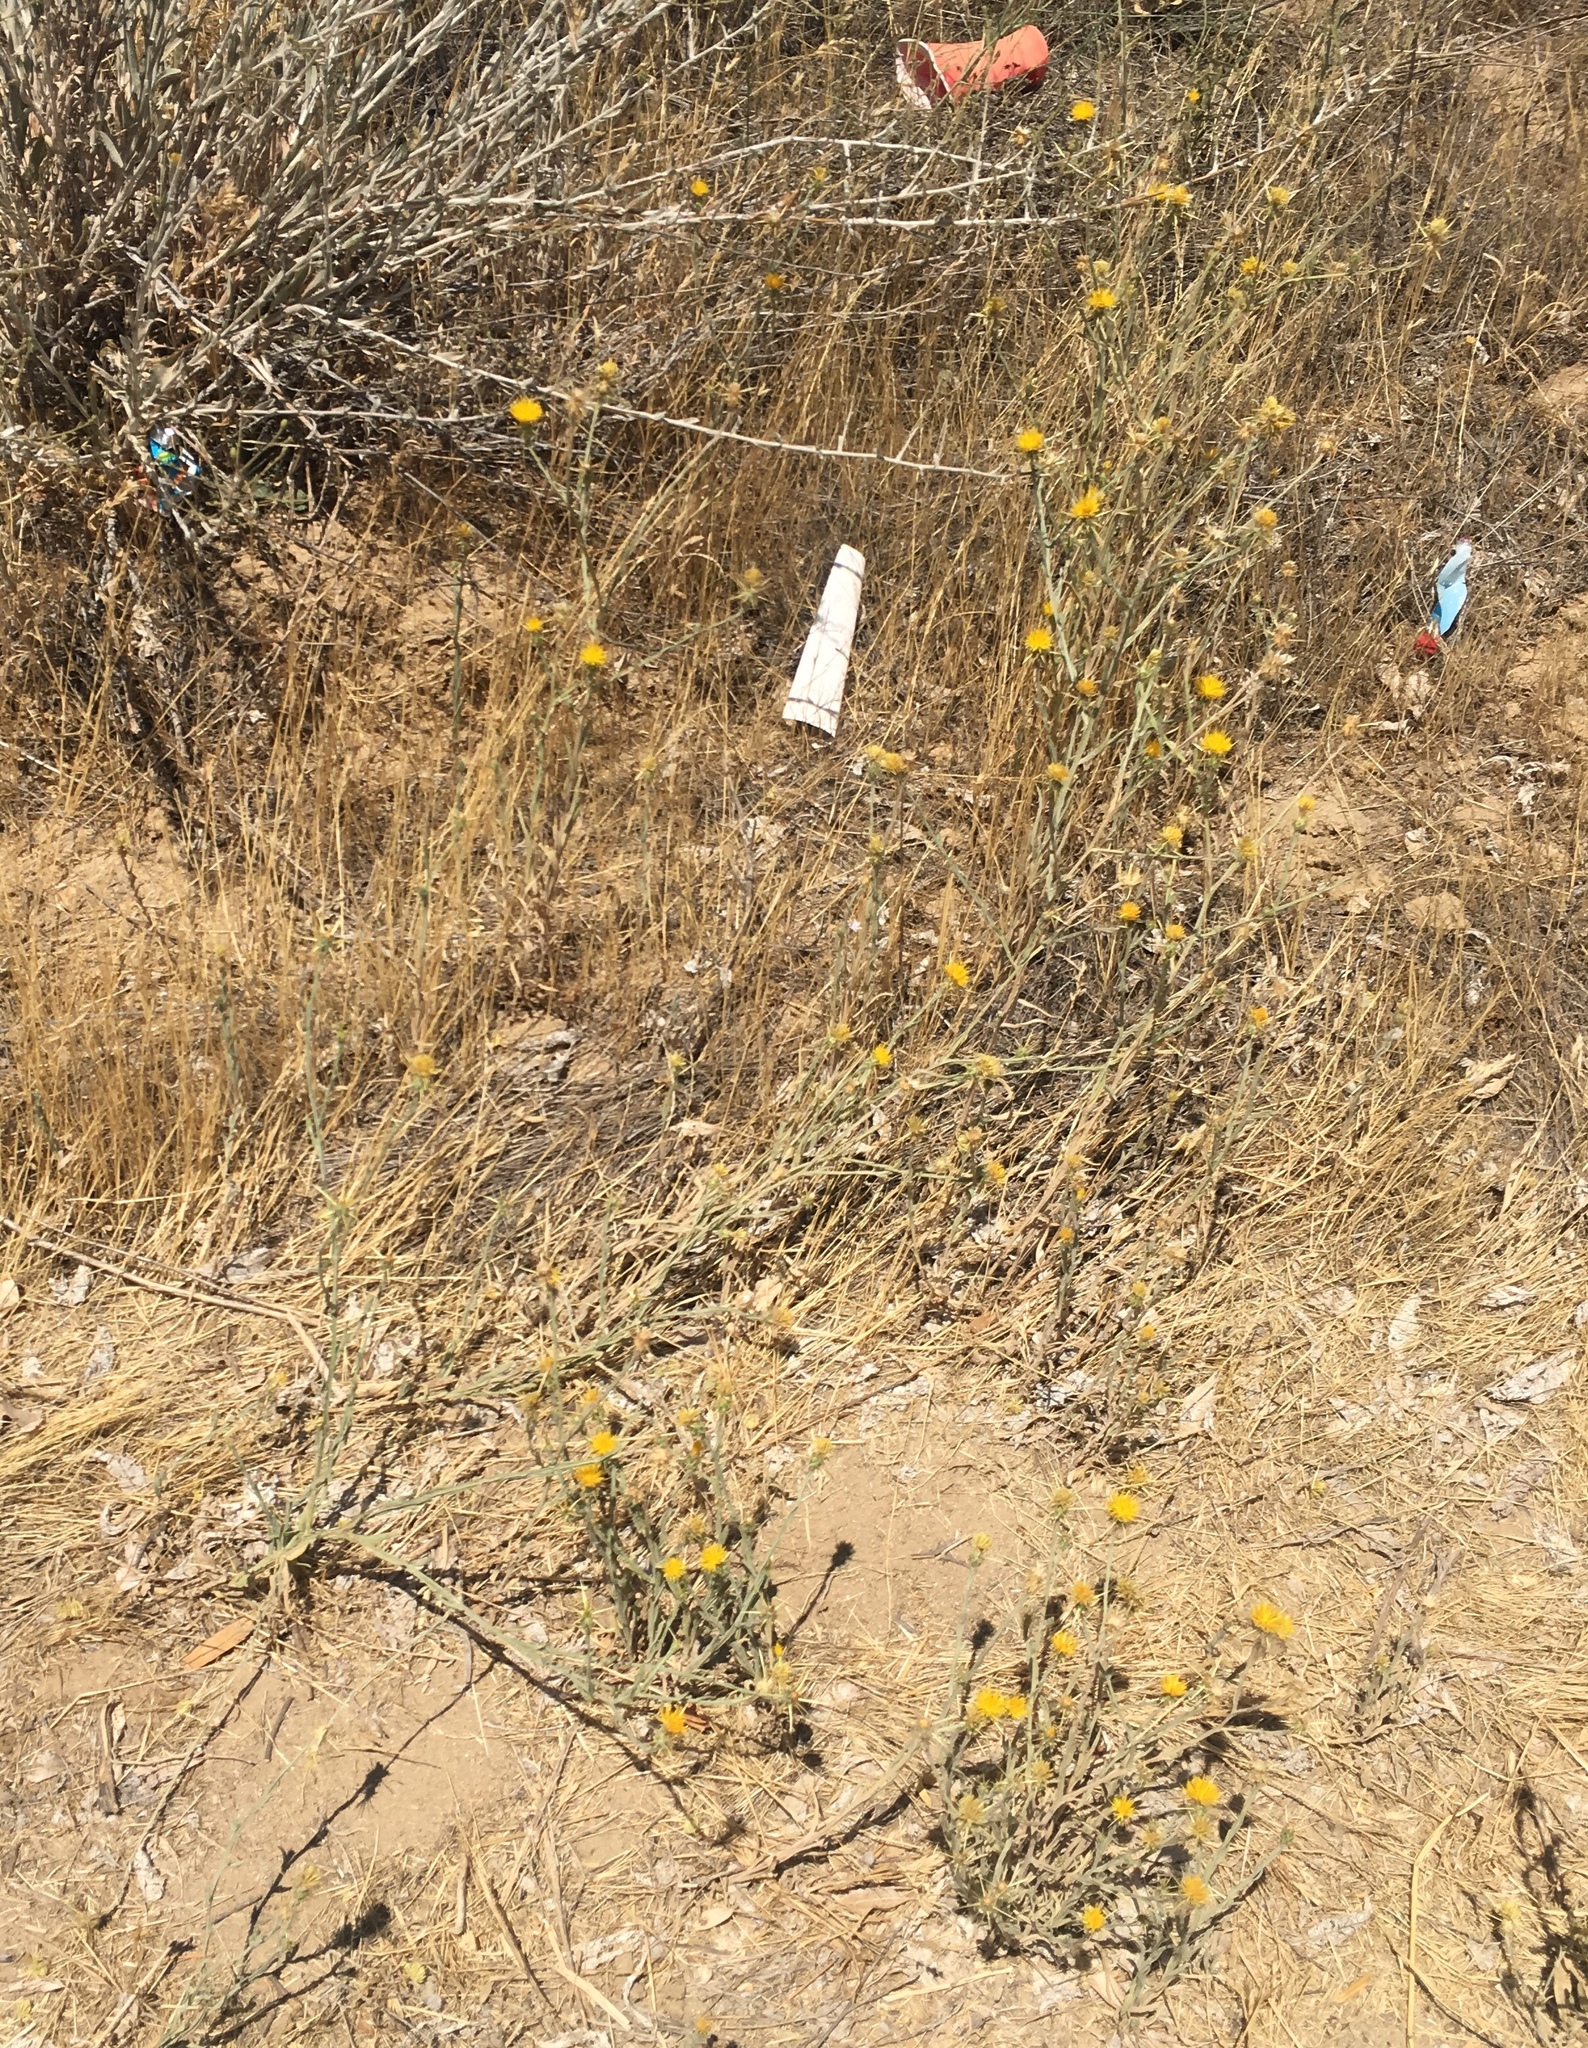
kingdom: Plantae
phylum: Tracheophyta
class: Magnoliopsida
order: Asterales
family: Asteraceae
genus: Centaurea
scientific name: Centaurea solstitialis
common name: Yellow star-thistle
